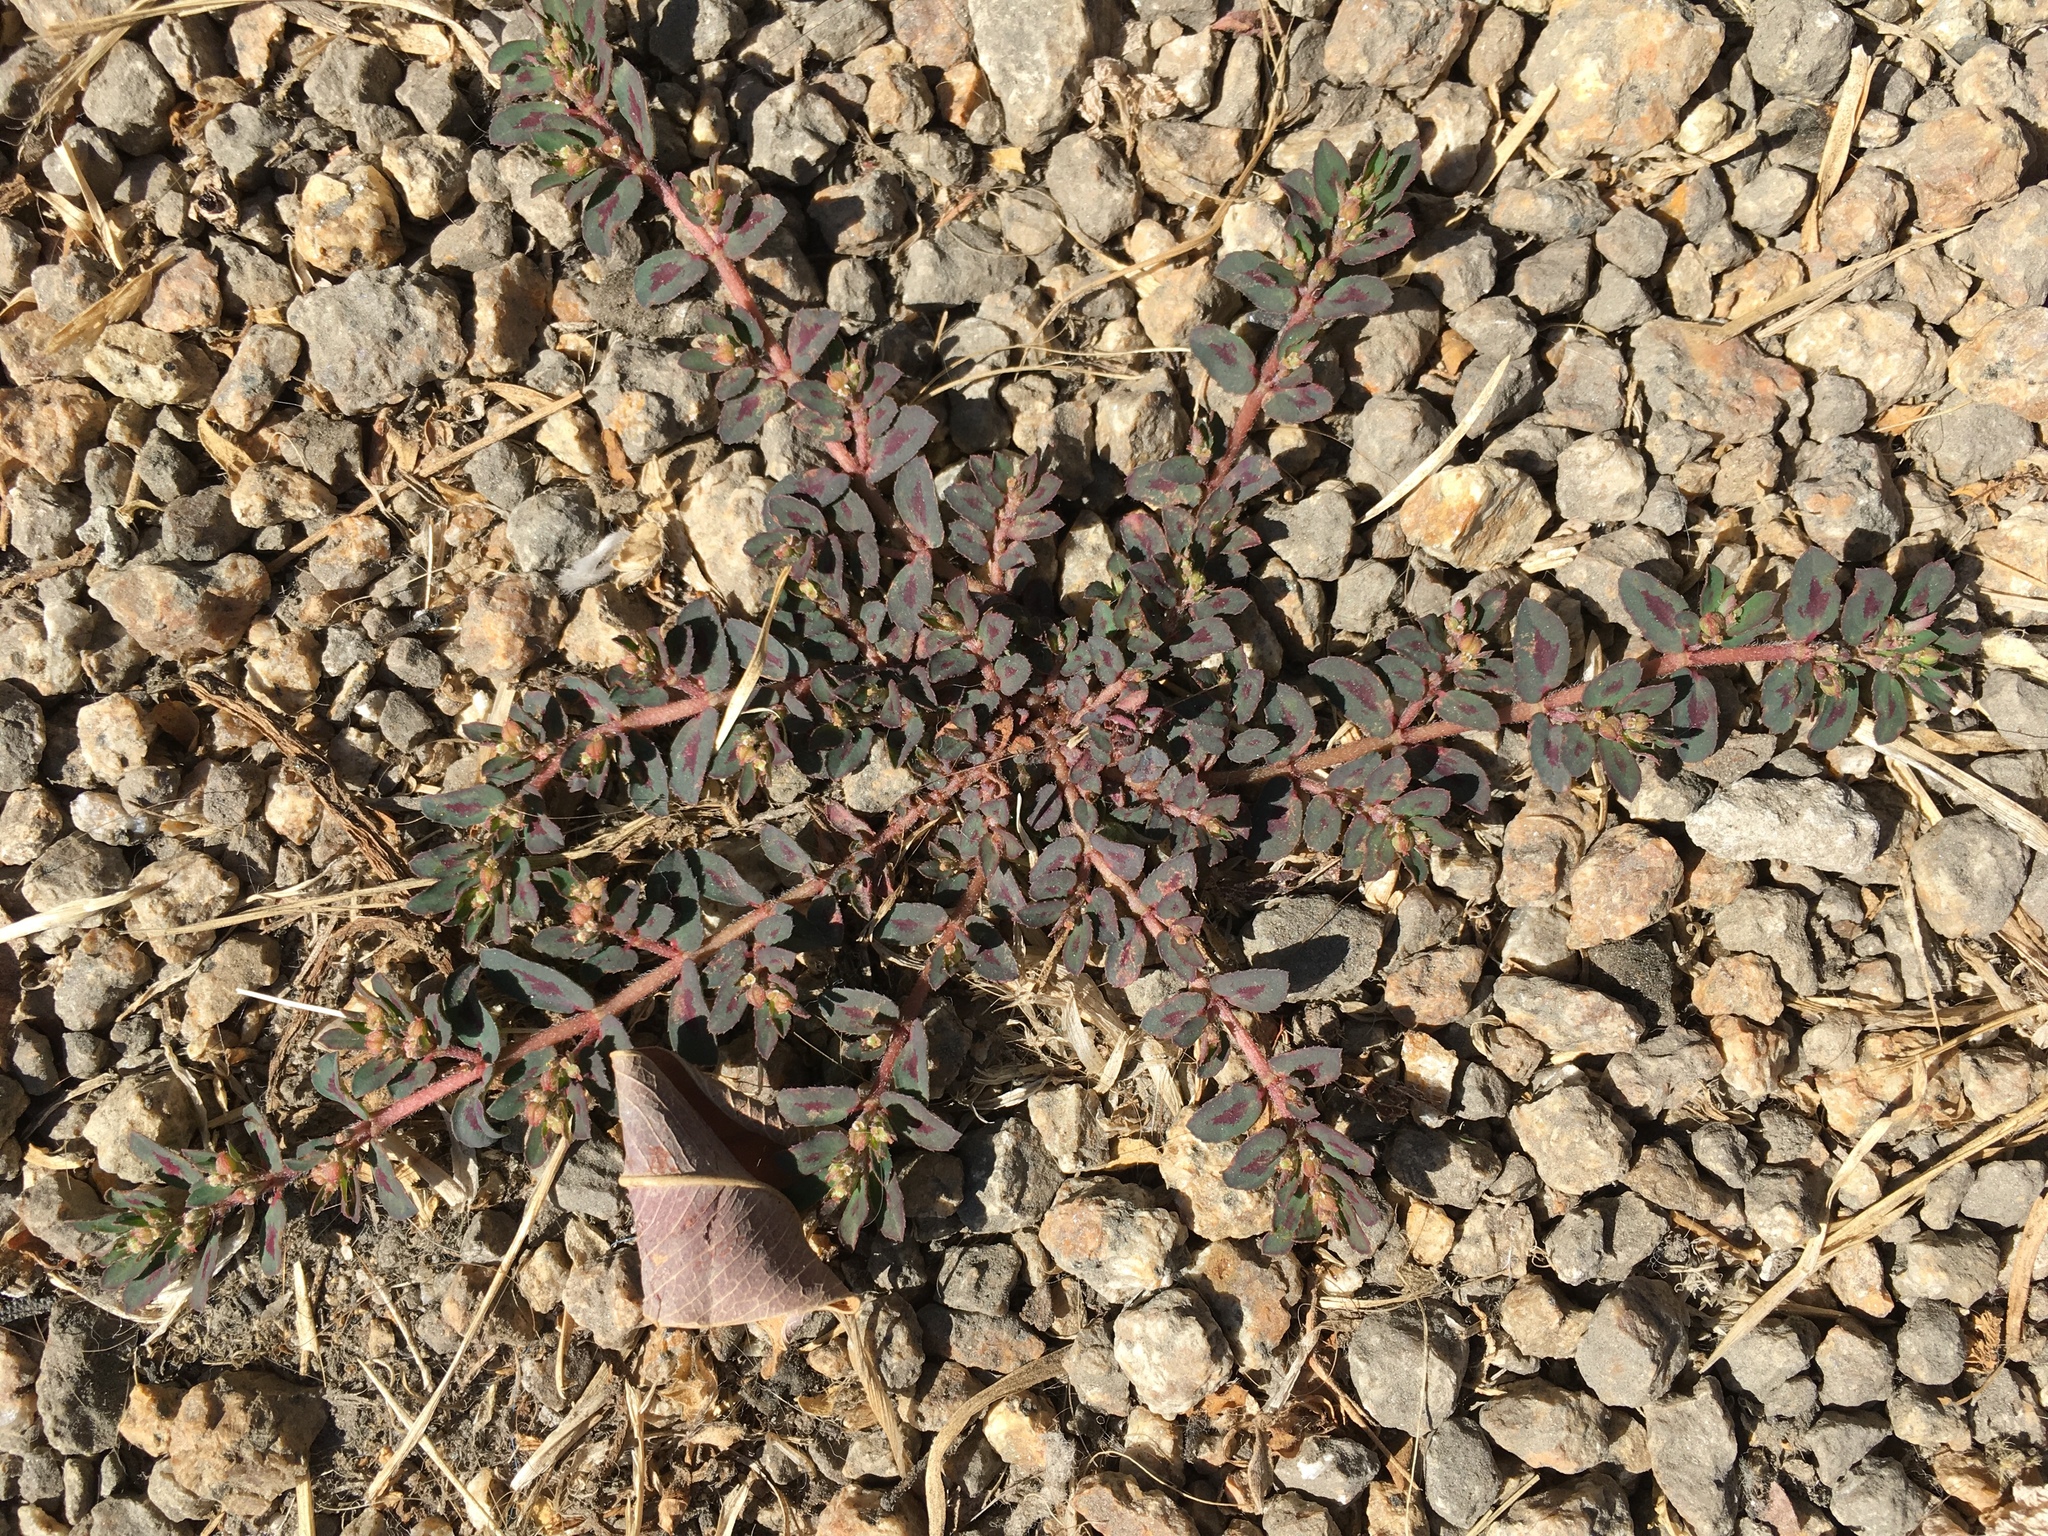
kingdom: Plantae
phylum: Tracheophyta
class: Magnoliopsida
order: Malpighiales
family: Euphorbiaceae
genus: Euphorbia
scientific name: Euphorbia maculata
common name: Spotted spurge
